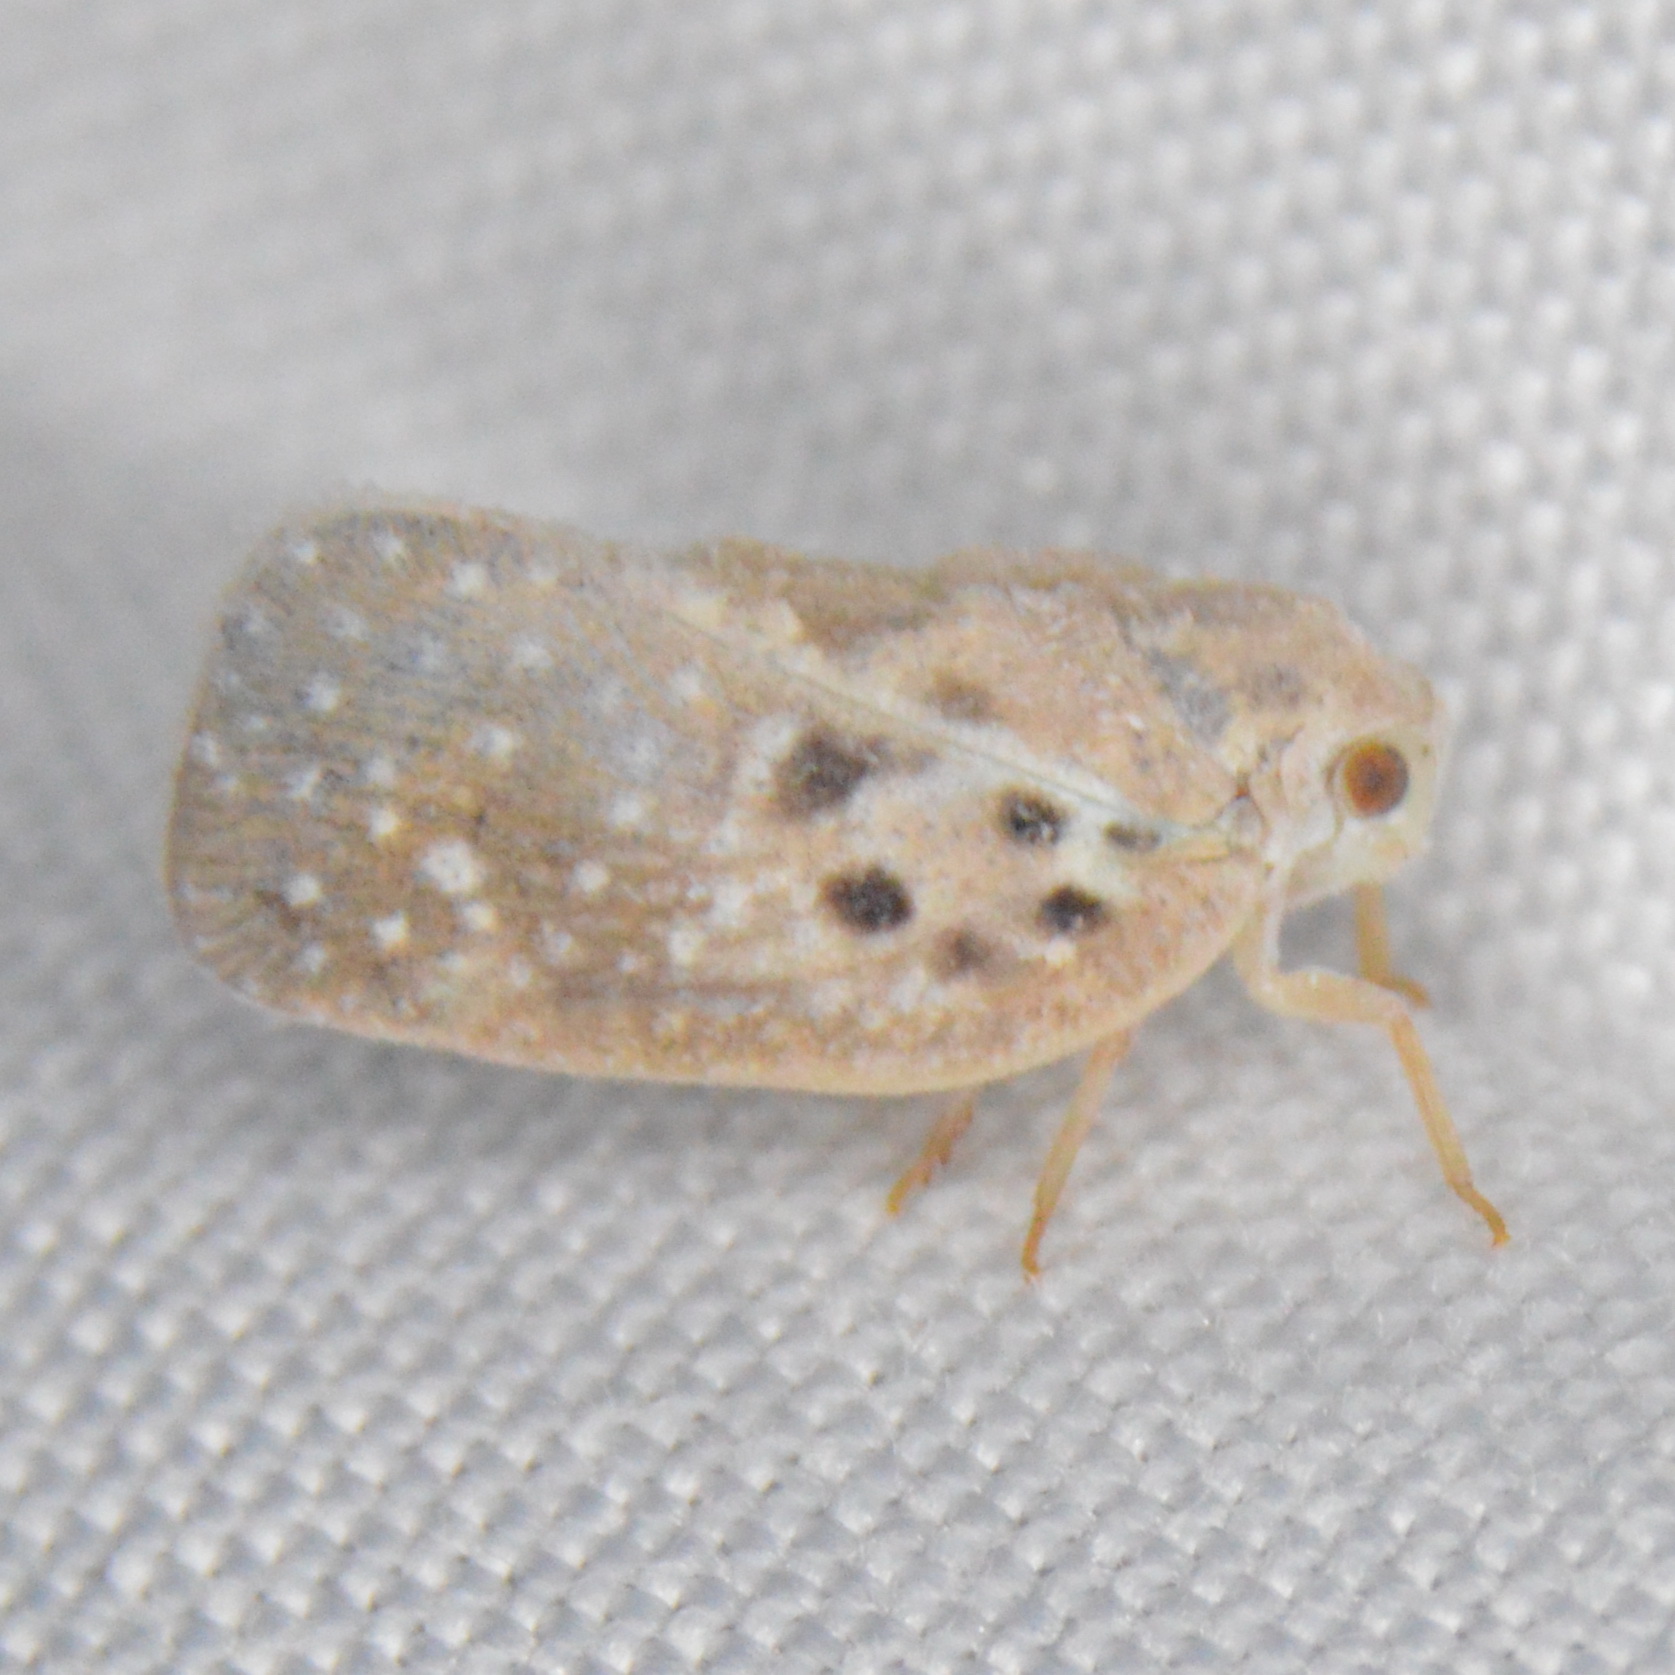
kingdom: Animalia
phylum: Arthropoda
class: Insecta
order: Hemiptera
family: Flatidae
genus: Metcalfa
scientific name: Metcalfa pruinosa
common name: Citrus flatid planthopper
